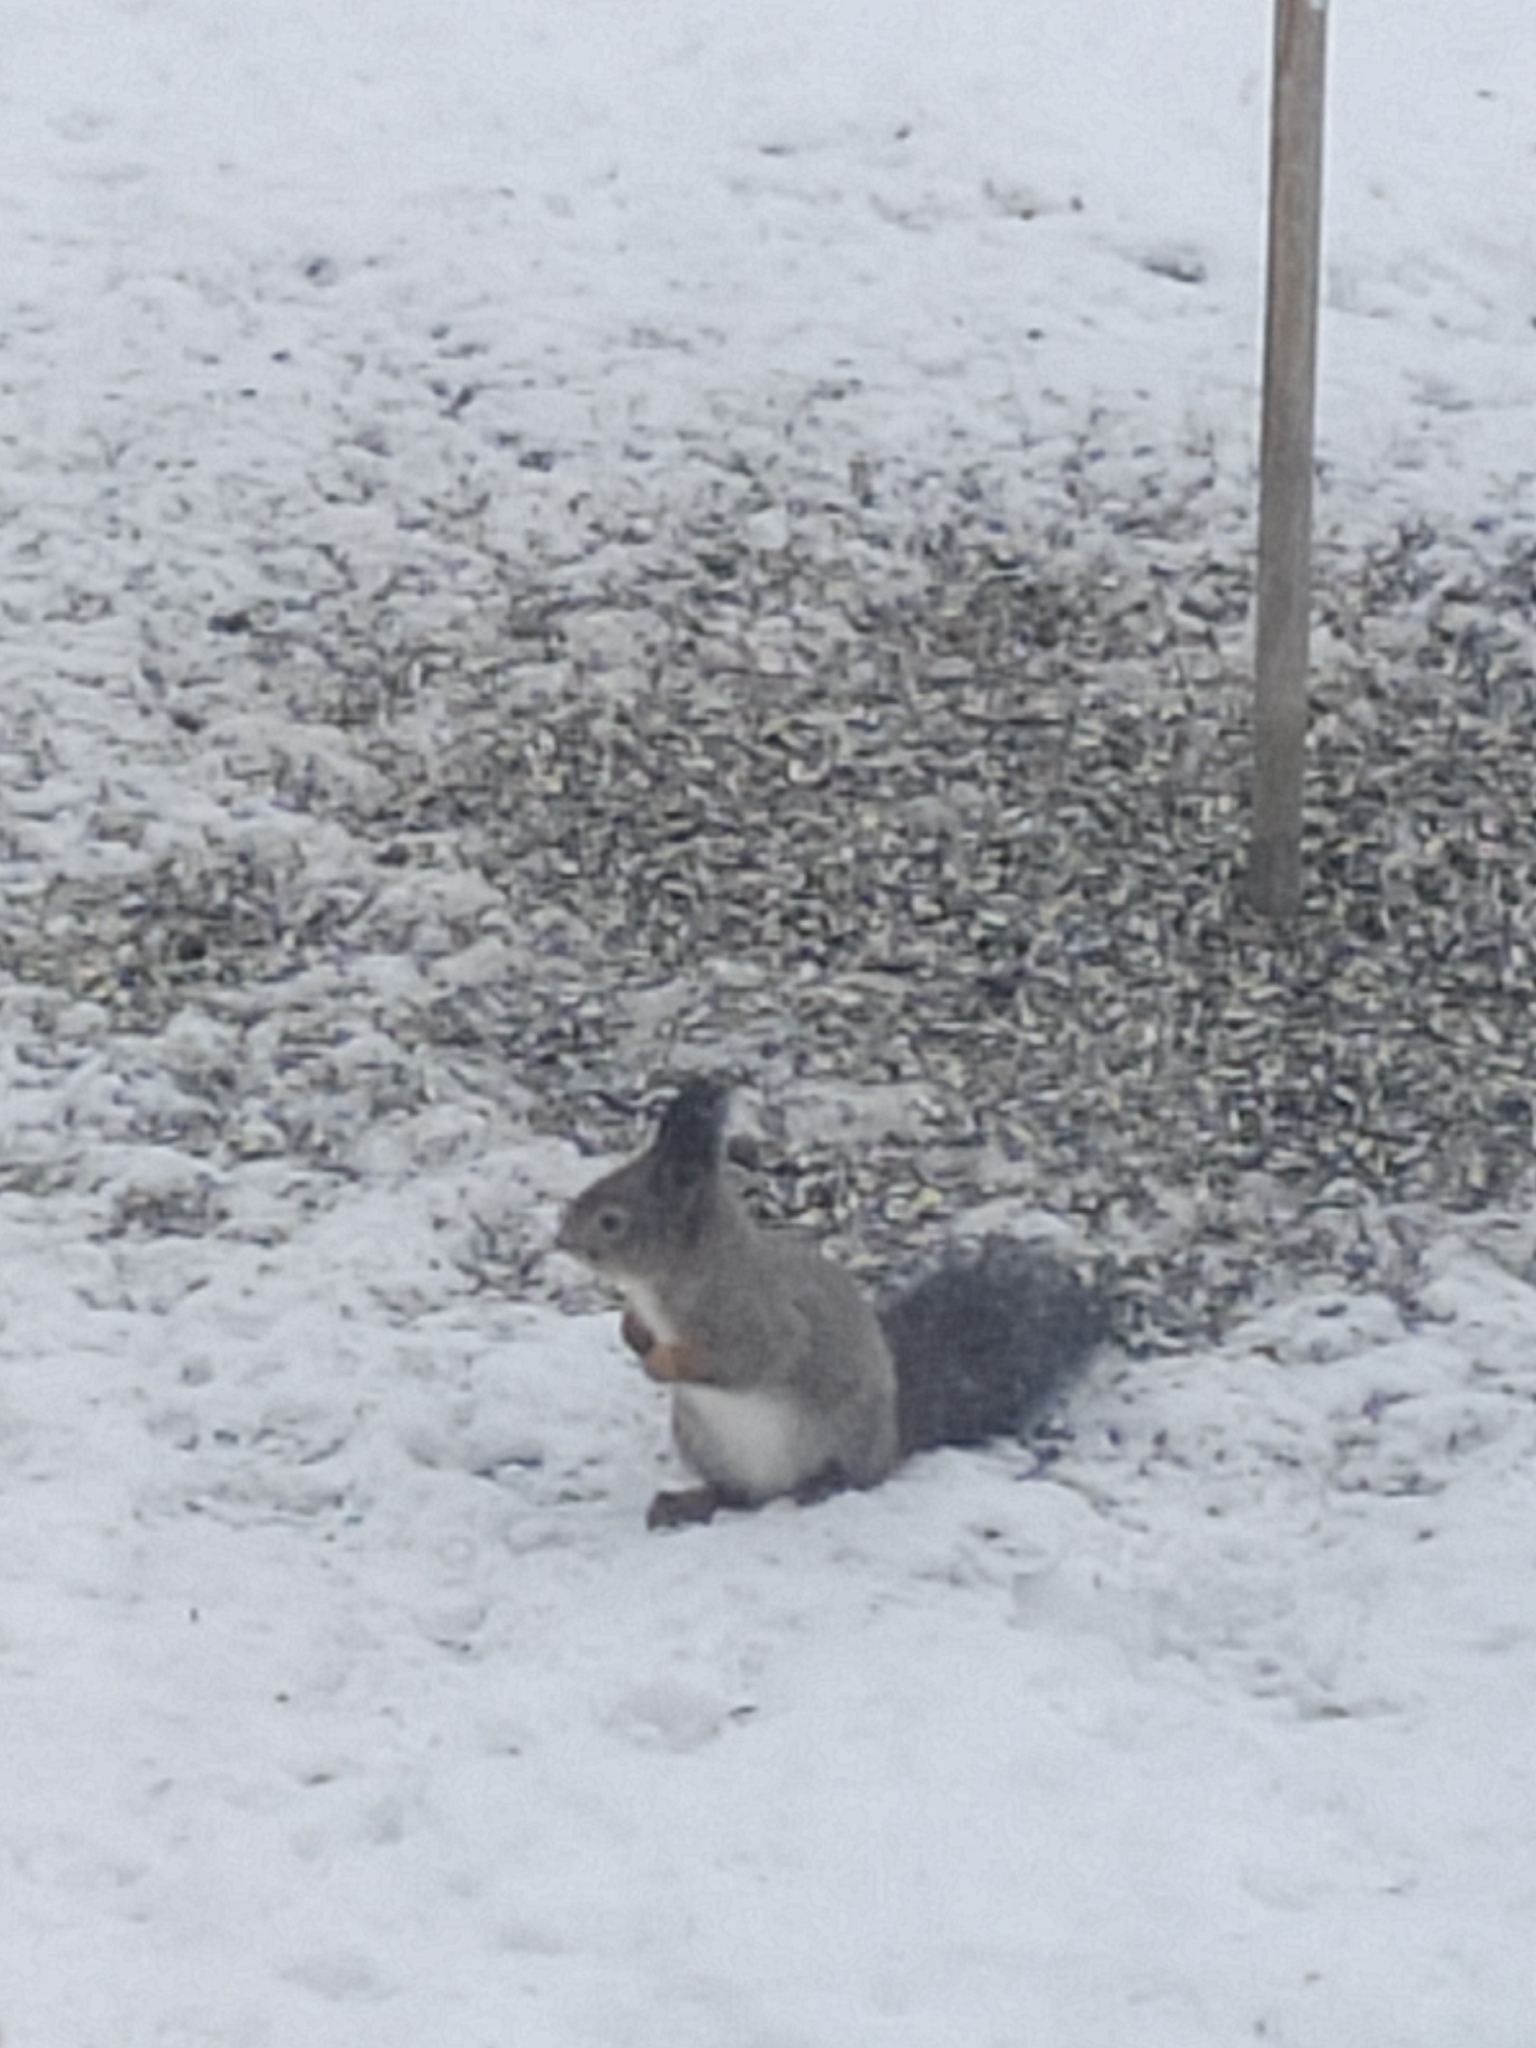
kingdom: Animalia
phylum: Chordata
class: Mammalia
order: Rodentia
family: Sciuridae
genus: Sciurus
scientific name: Sciurus vulgaris
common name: Eurasian red squirrel
